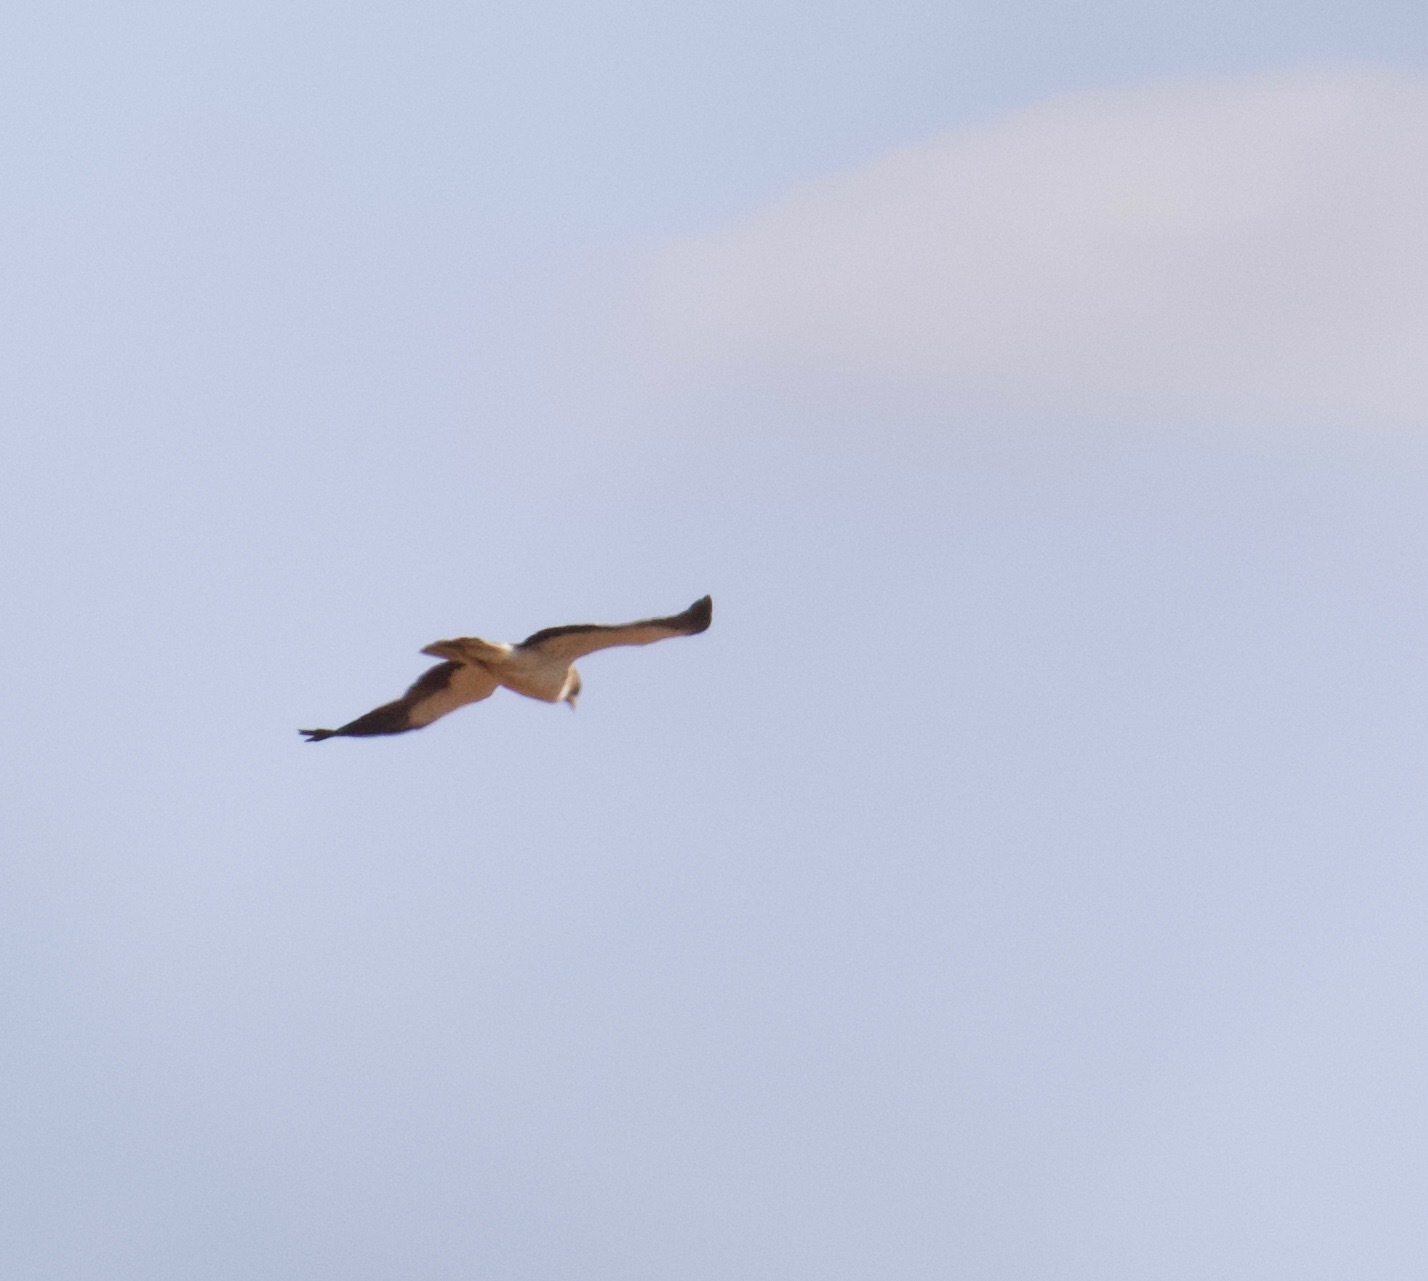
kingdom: Animalia
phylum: Chordata
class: Aves
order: Accipitriformes
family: Accipitridae
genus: Hieraaetus
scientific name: Hieraaetus pennatus
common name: Booted eagle
